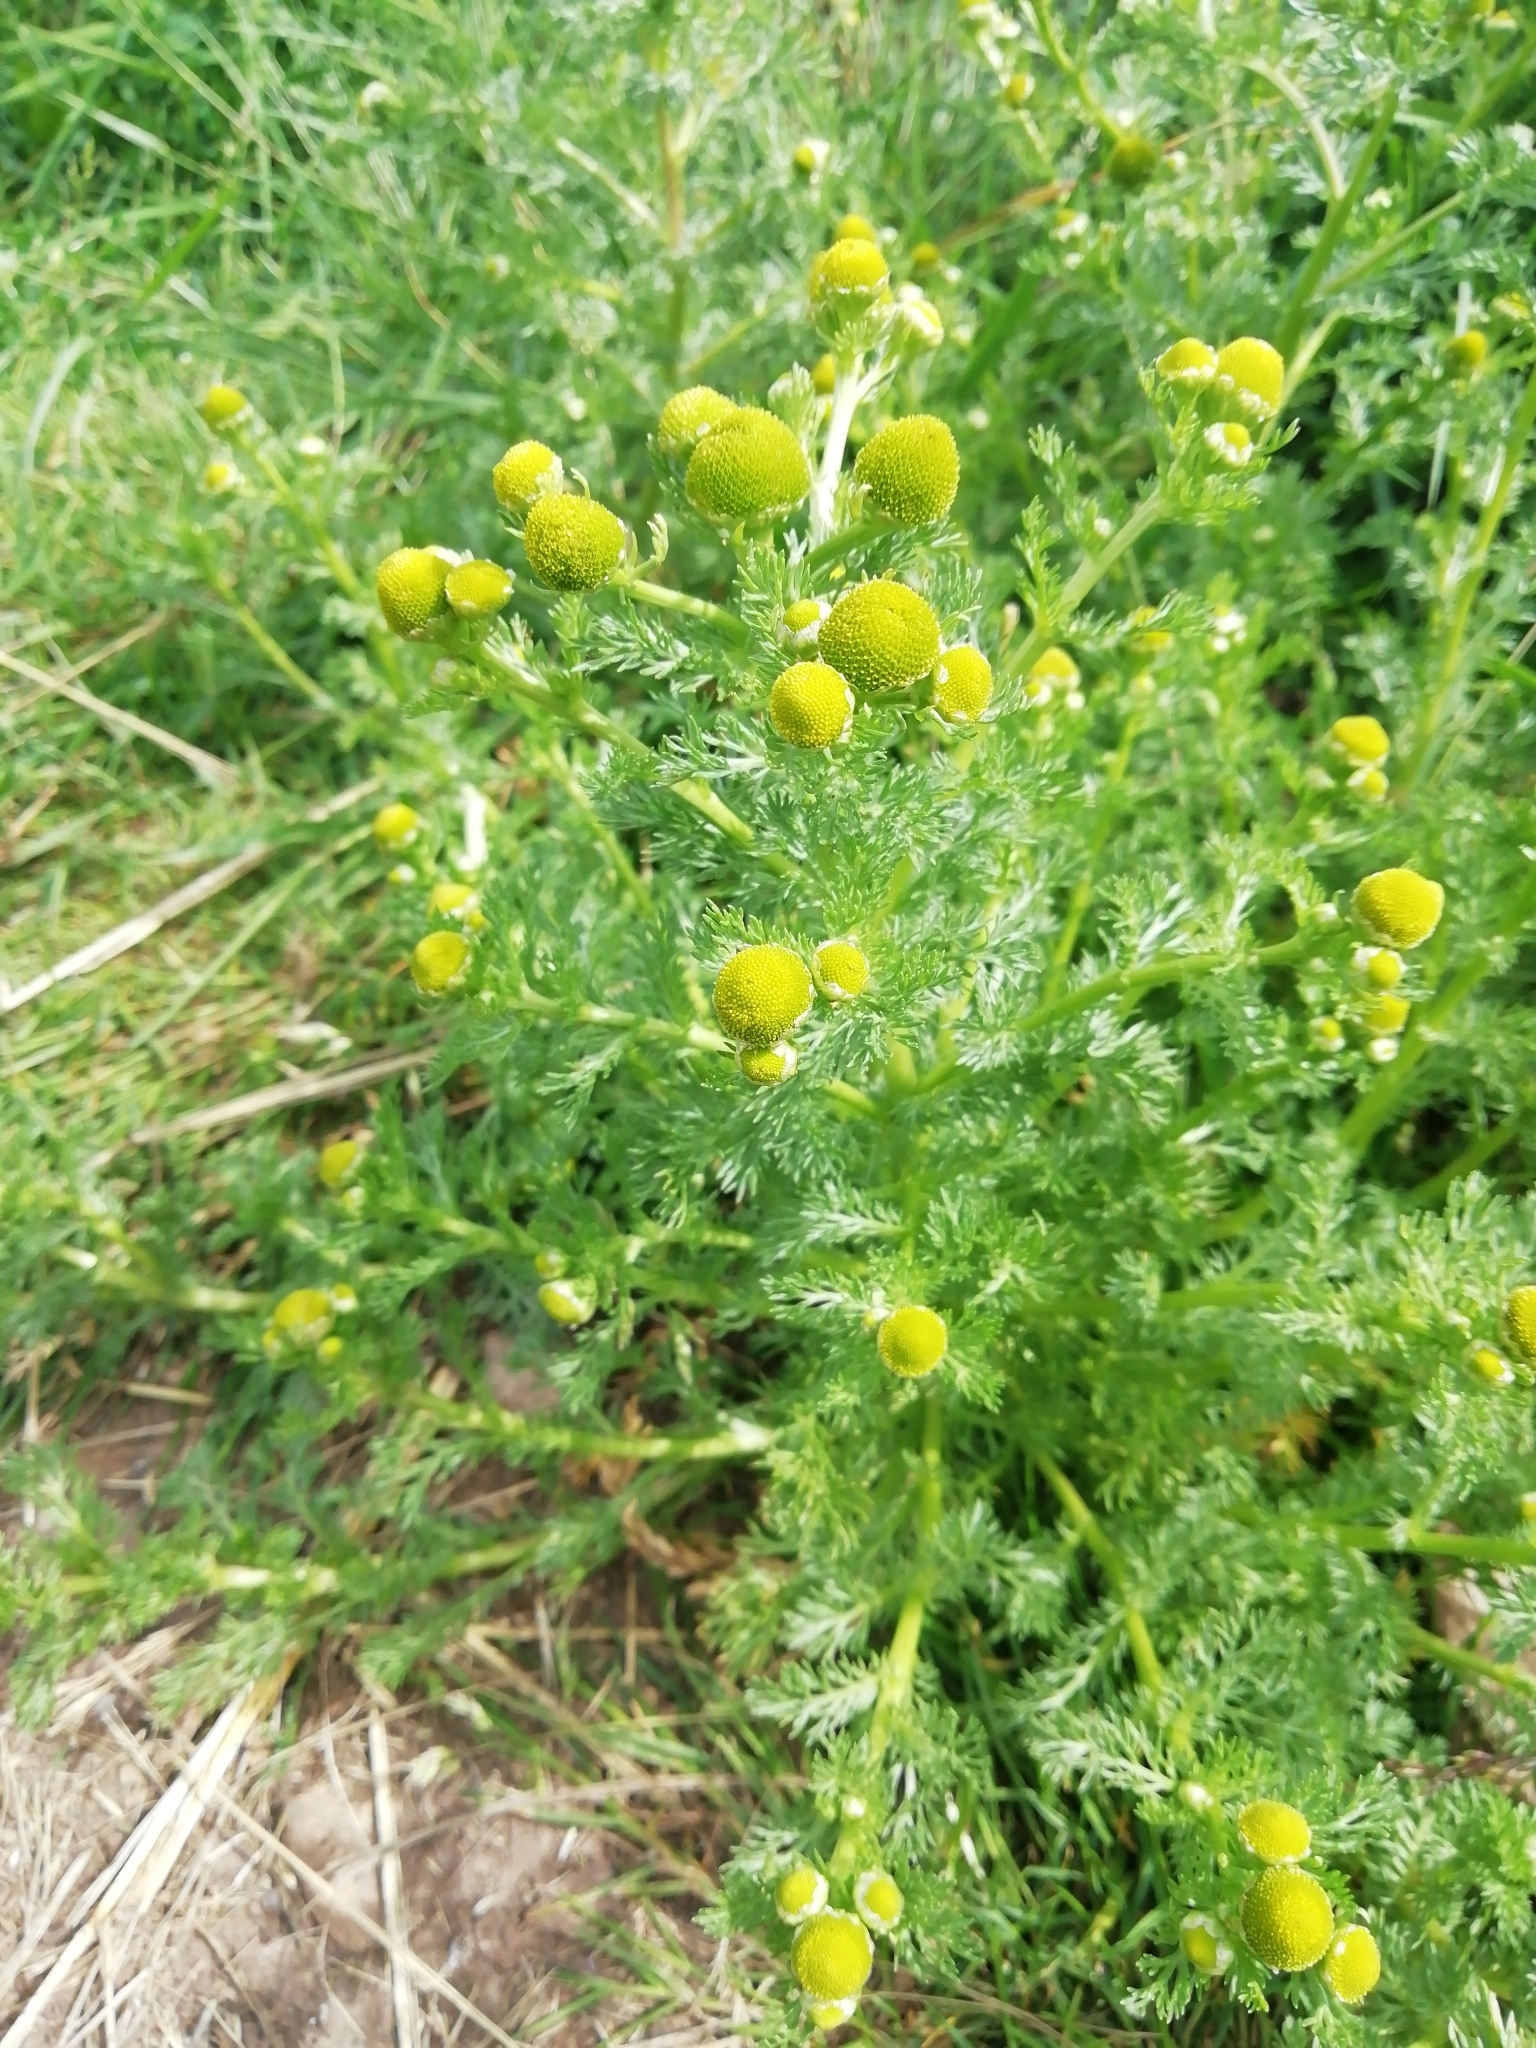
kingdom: Plantae
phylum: Tracheophyta
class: Magnoliopsida
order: Asterales
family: Asteraceae
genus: Matricaria
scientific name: Matricaria discoidea
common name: Disc mayweed
